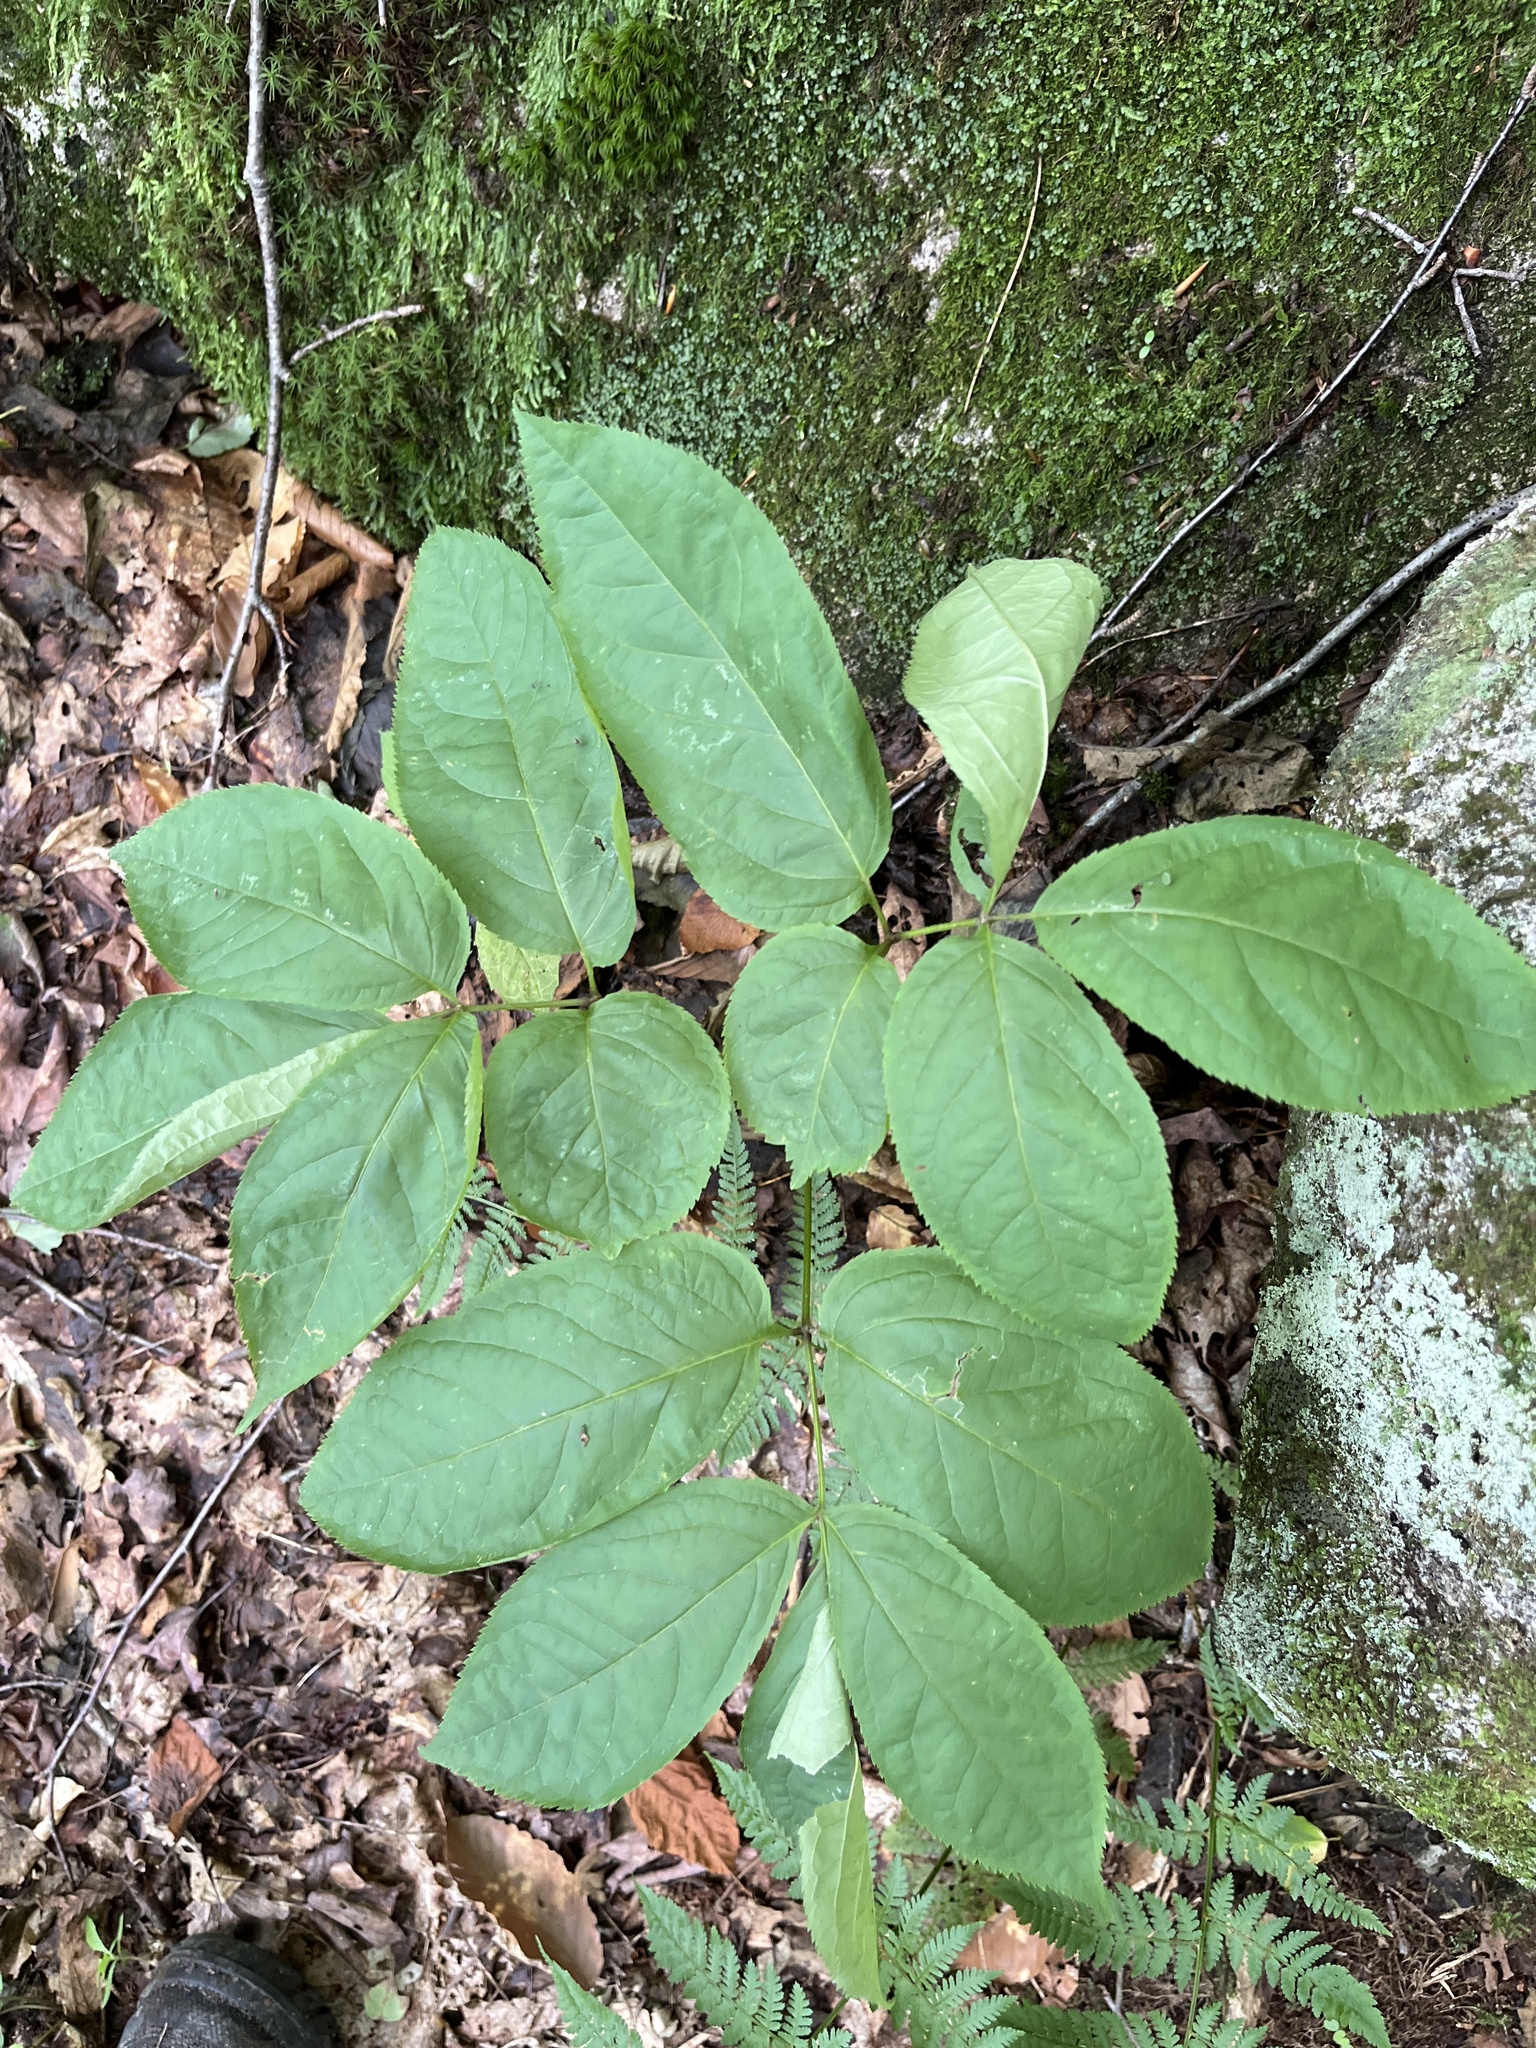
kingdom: Plantae
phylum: Tracheophyta
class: Magnoliopsida
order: Apiales
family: Araliaceae
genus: Aralia
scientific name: Aralia nudicaulis
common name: Wild sarsaparilla
